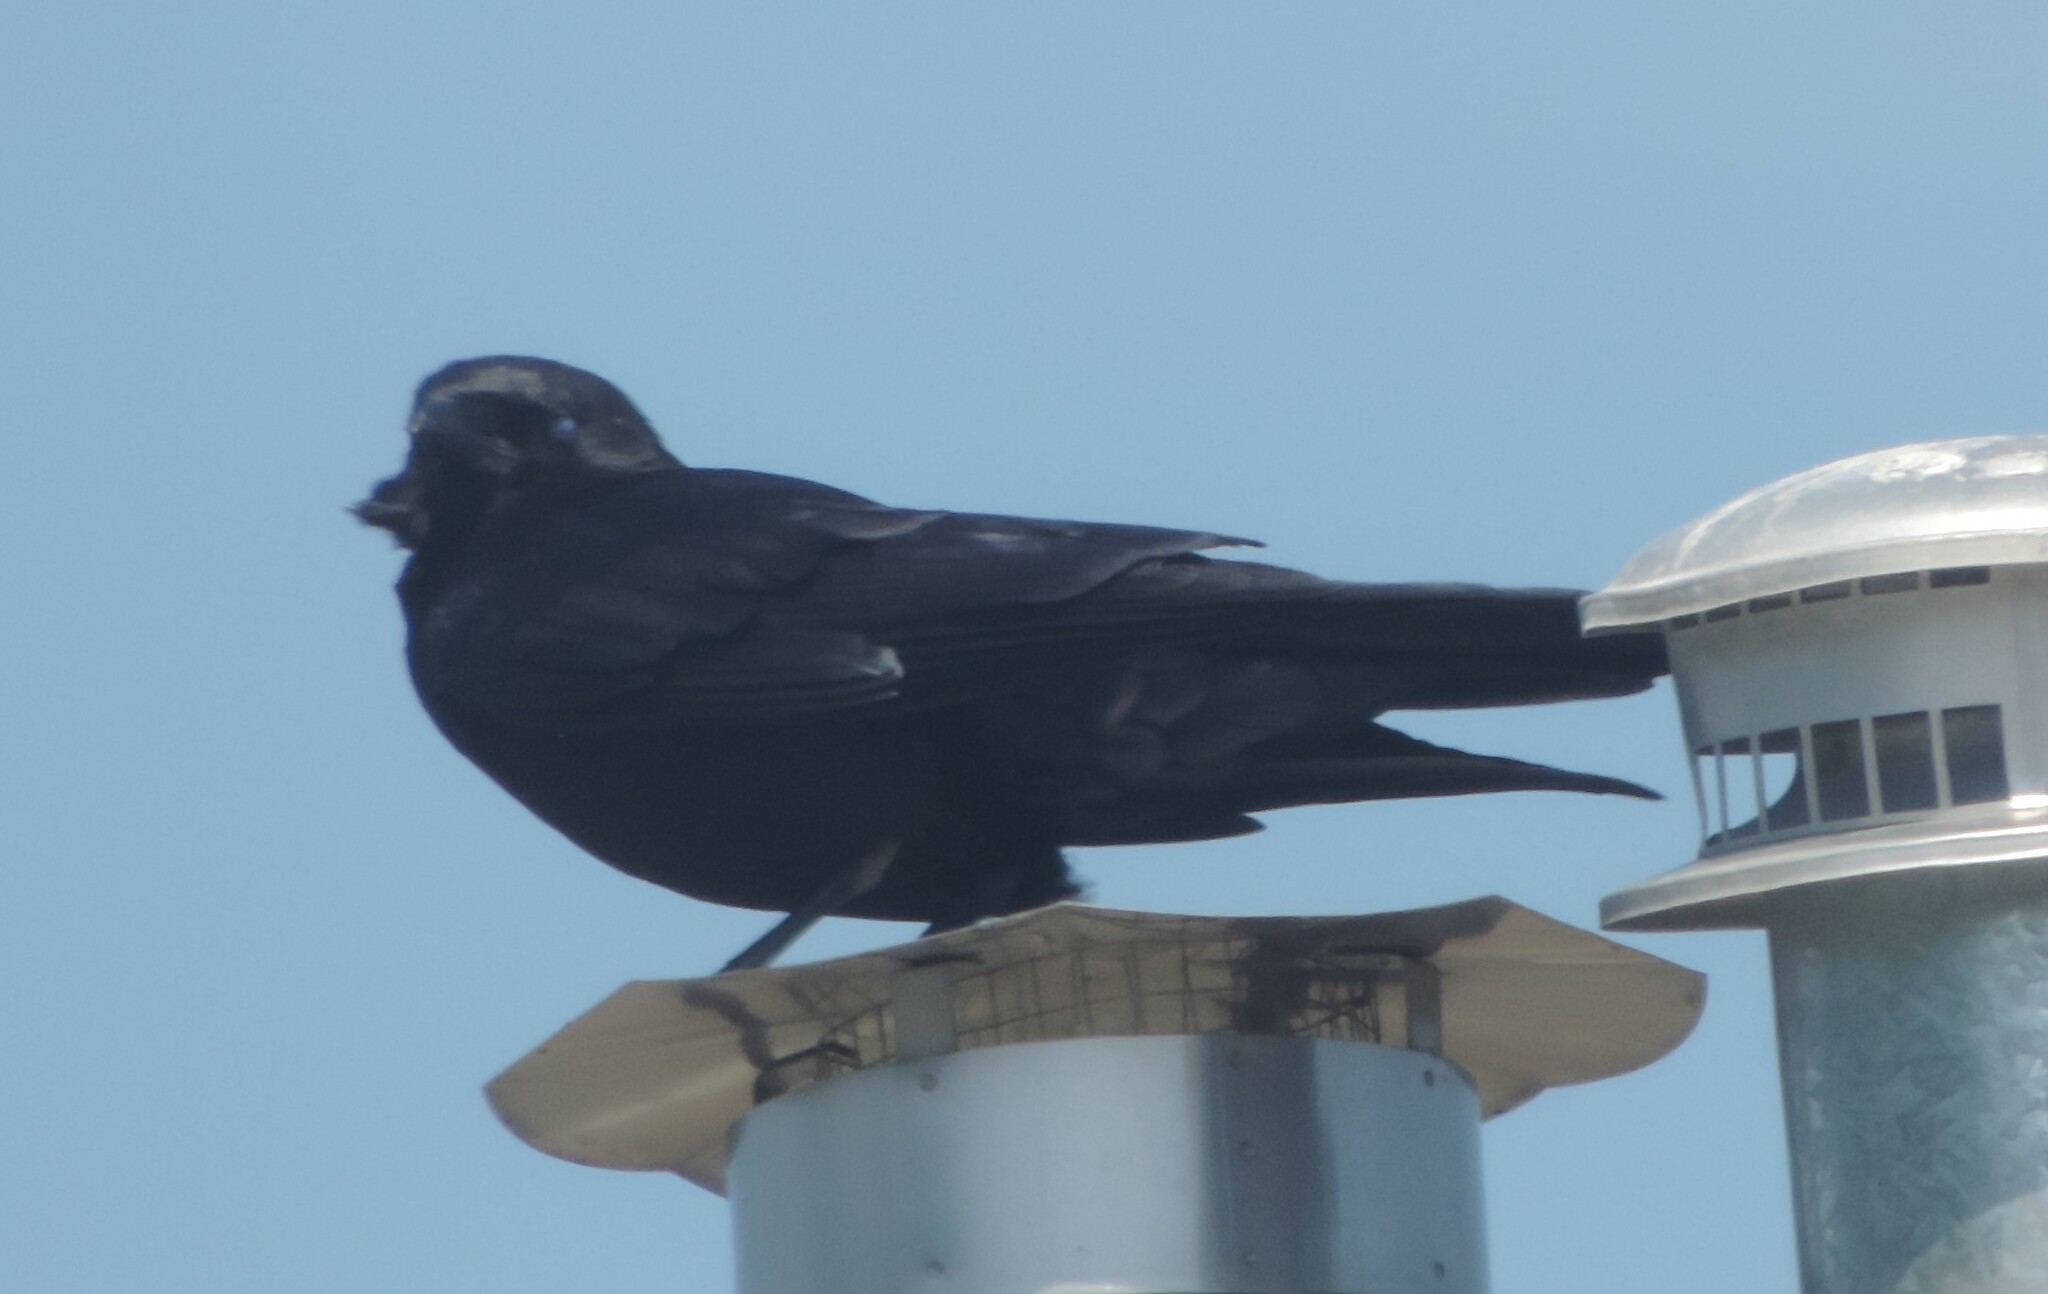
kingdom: Animalia
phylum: Chordata
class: Aves
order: Passeriformes
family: Corvidae
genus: Corvus
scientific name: Corvus brachyrhynchos
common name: American crow
